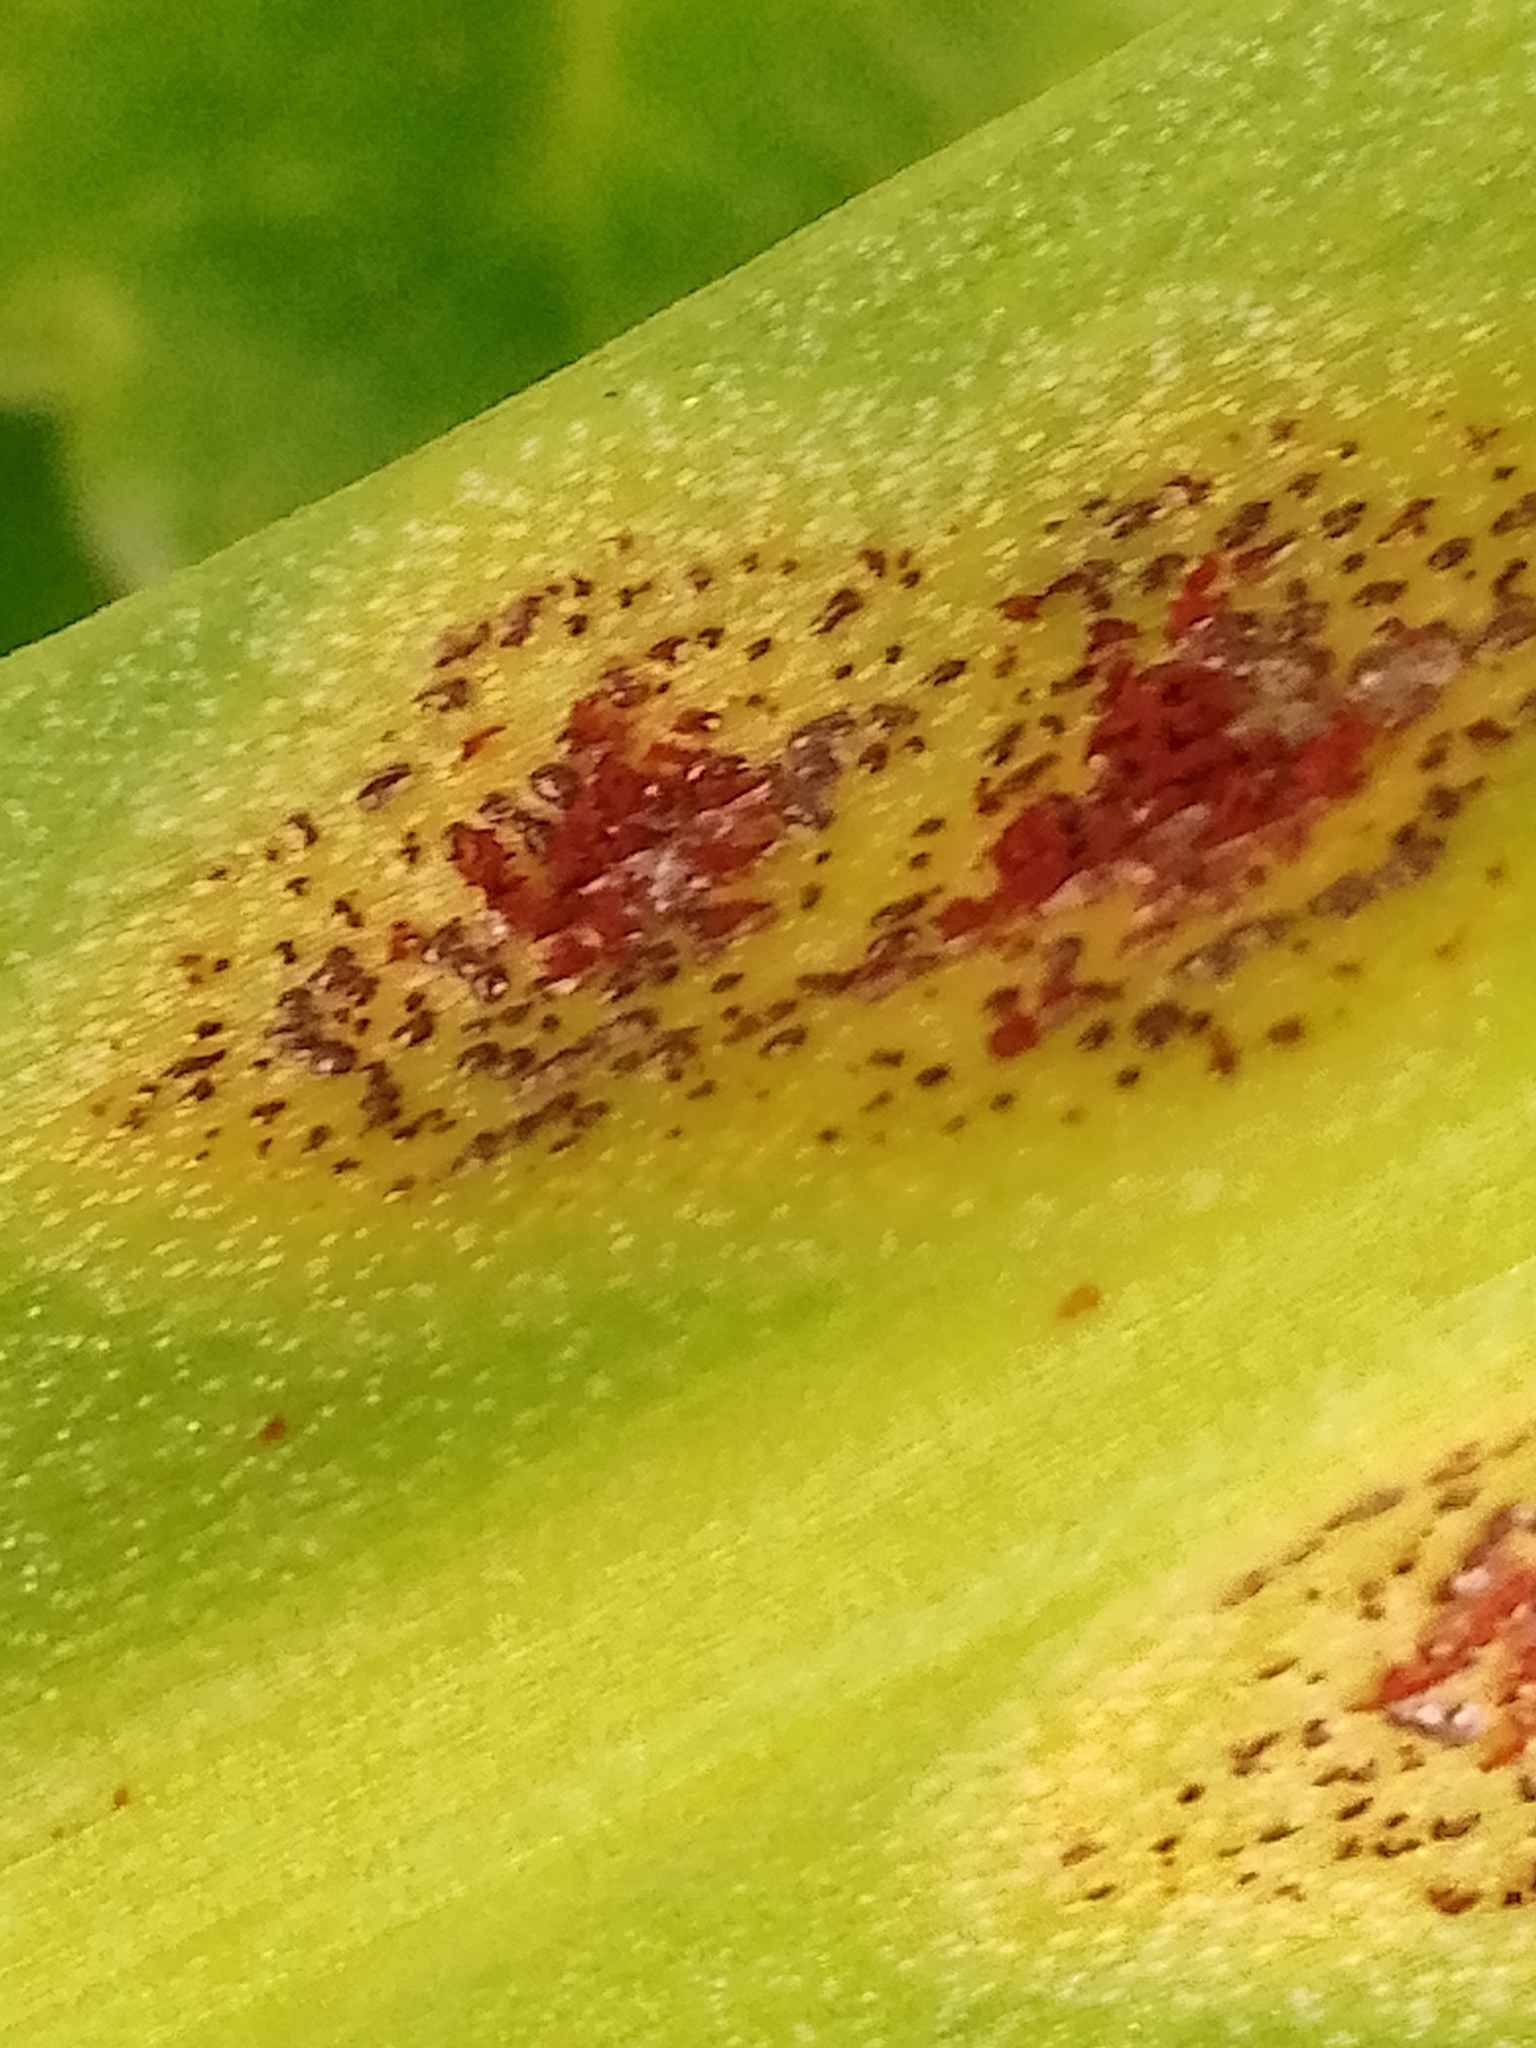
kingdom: Fungi
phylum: Basidiomycota
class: Pucciniomycetes
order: Pucciniales
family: Pucciniaceae
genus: Uromyces
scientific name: Uromyces muscari
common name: Bluebell rust
